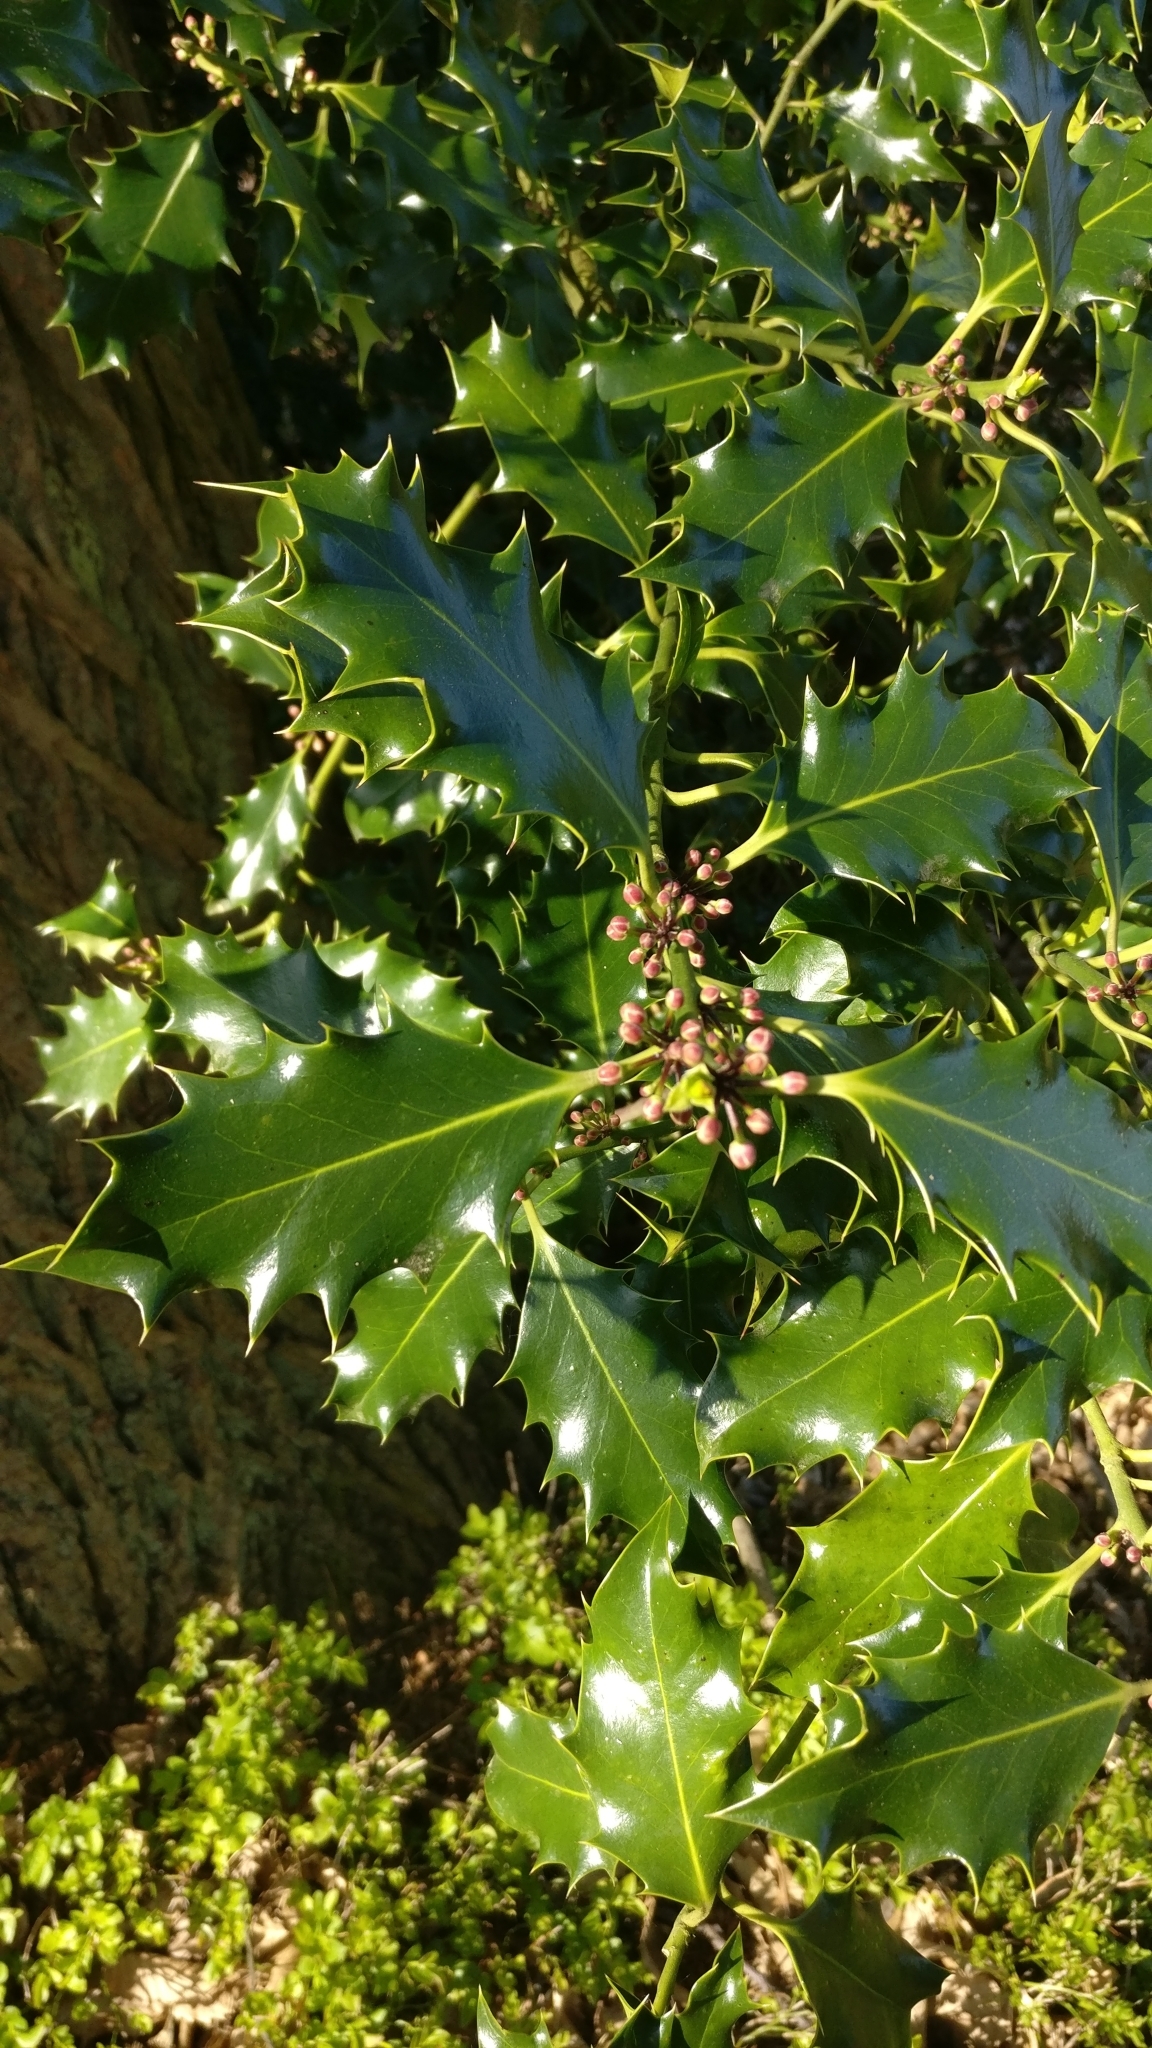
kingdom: Plantae
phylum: Tracheophyta
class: Magnoliopsida
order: Aquifoliales
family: Aquifoliaceae
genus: Ilex
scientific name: Ilex aquifolium
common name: English holly
